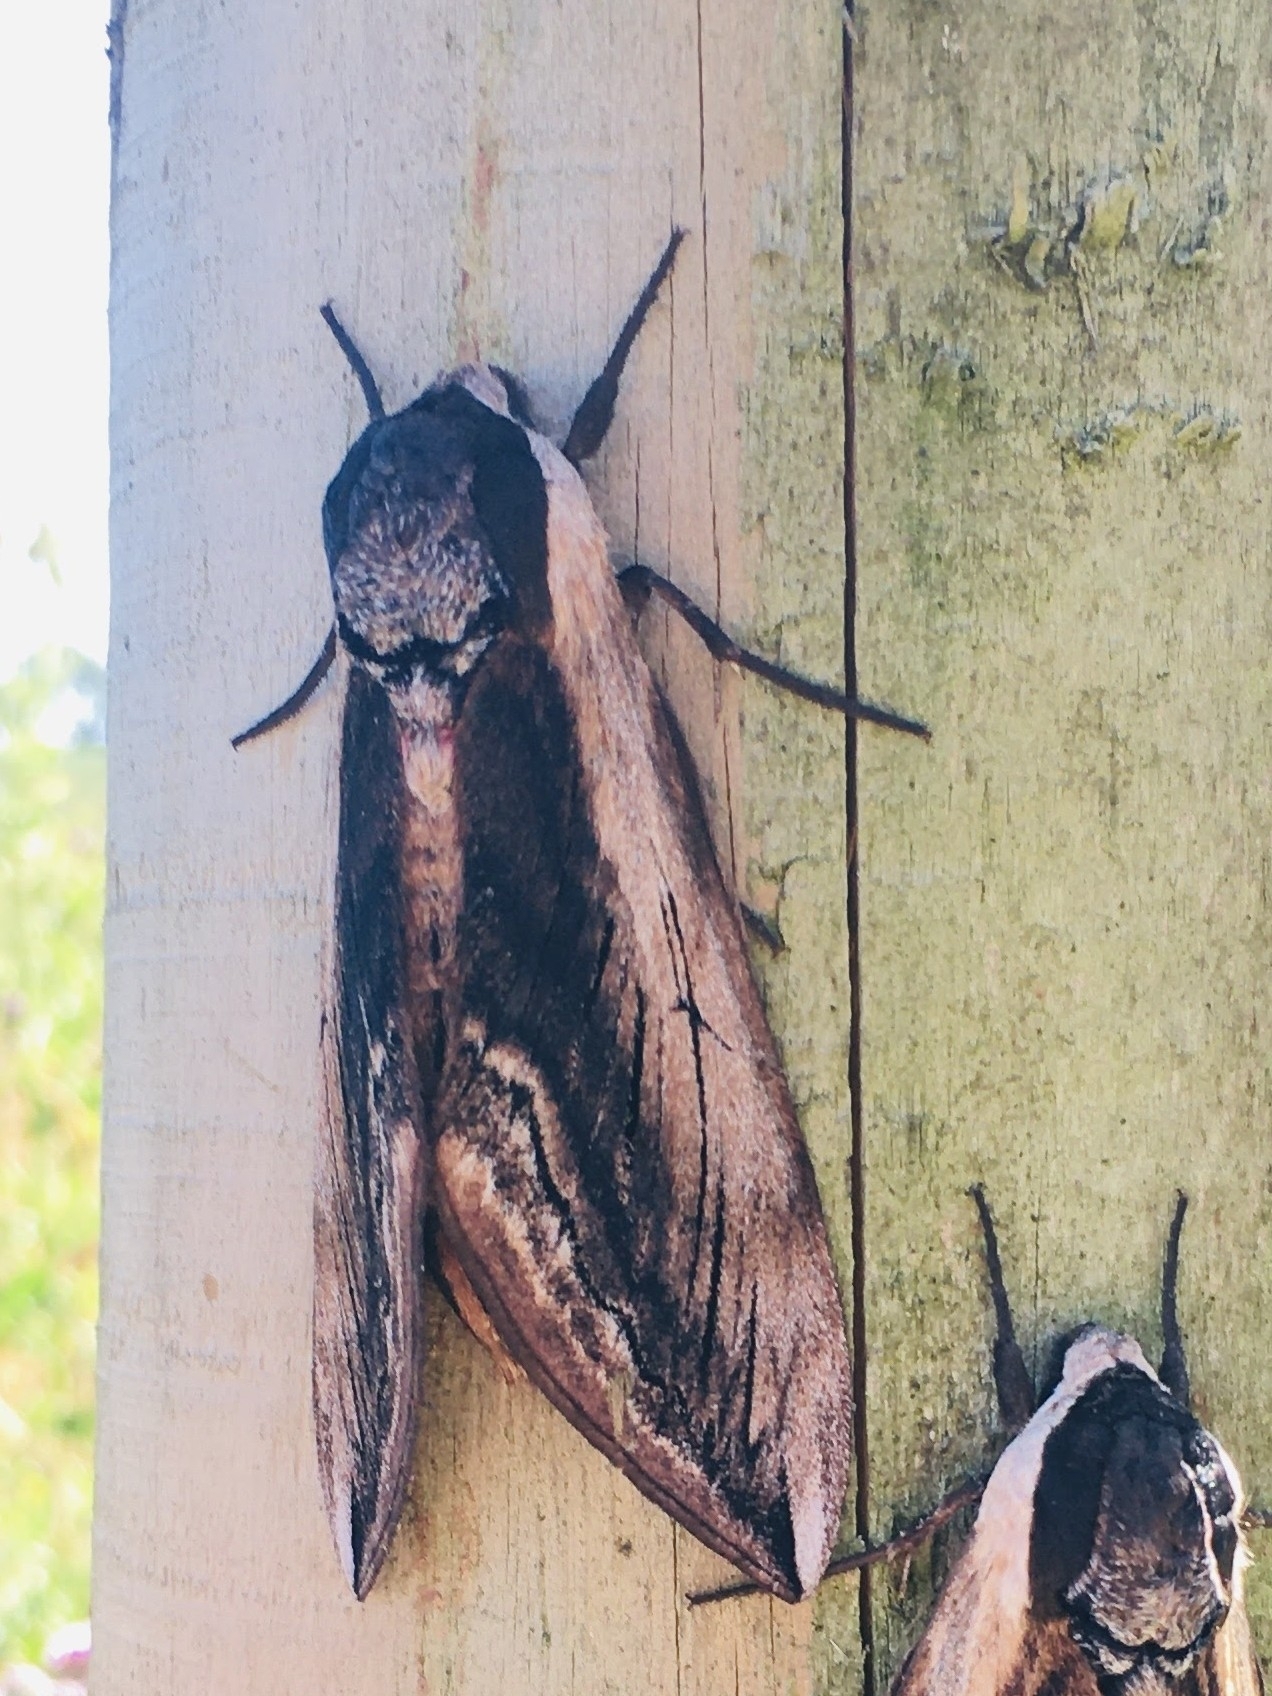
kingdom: Animalia
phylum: Arthropoda
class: Insecta
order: Lepidoptera
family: Sphingidae
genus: Sphinx
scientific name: Sphinx ligustri
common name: Privet hawk-moth
